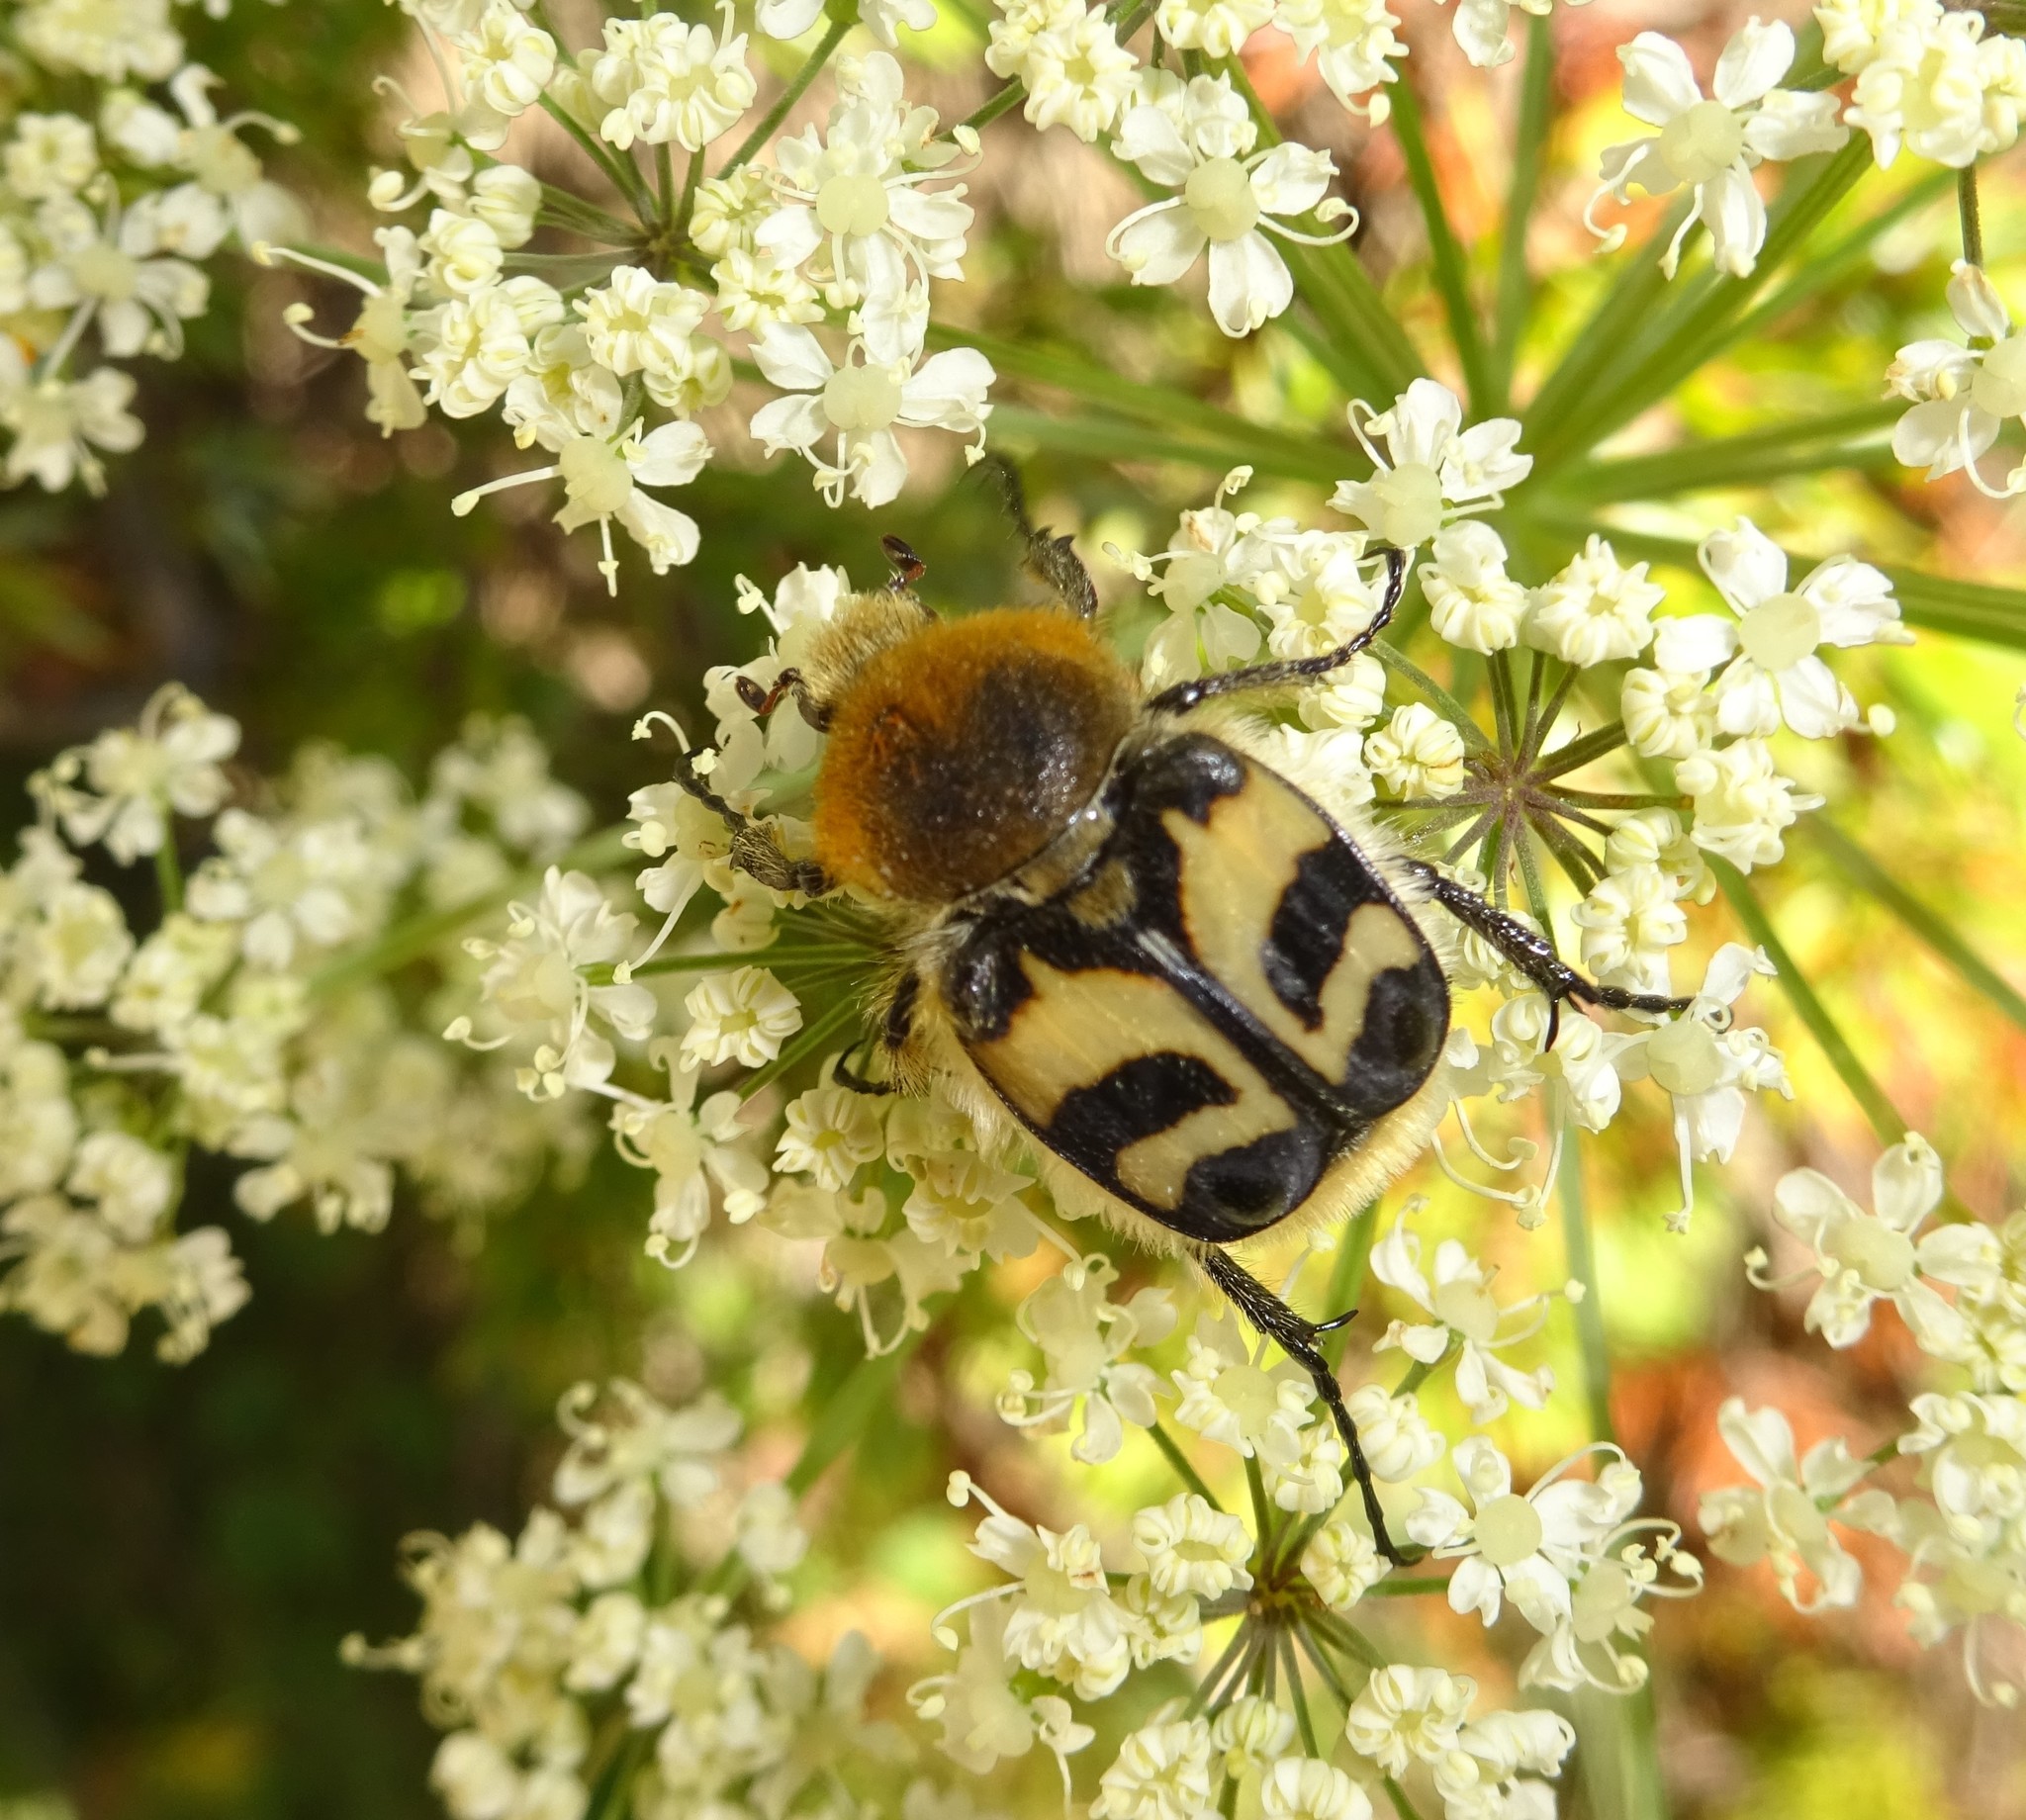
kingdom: Animalia
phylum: Arthropoda
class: Insecta
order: Coleoptera
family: Scarabaeidae
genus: Trichius
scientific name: Trichius fasciatus
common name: Bee beetle
